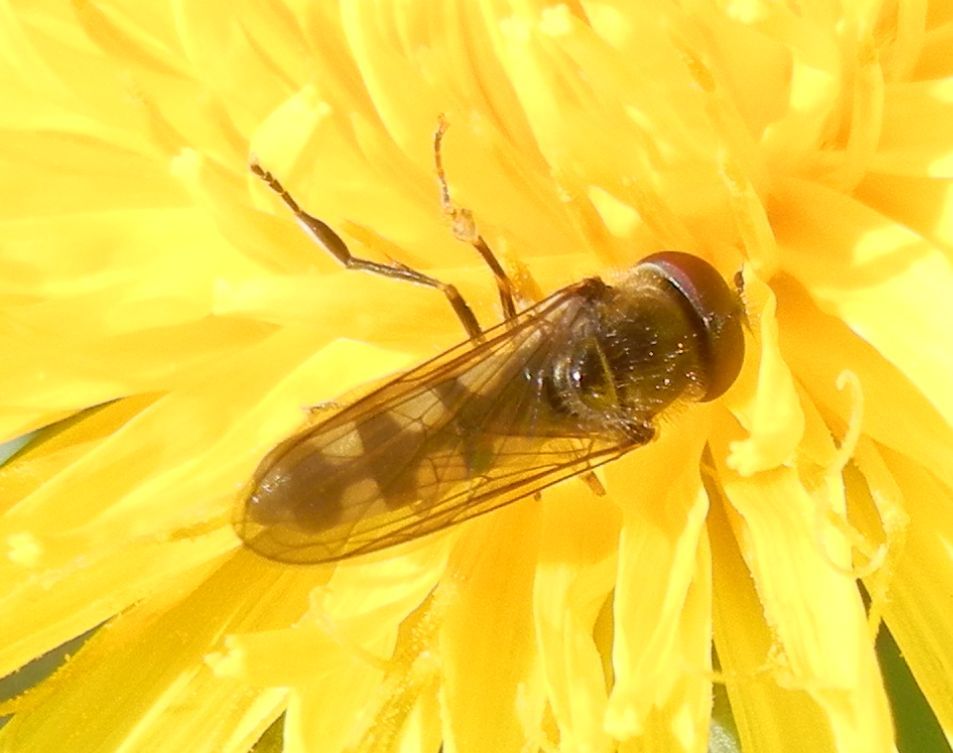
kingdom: Animalia
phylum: Arthropoda
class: Insecta
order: Diptera
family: Syrphidae
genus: Platycheirus
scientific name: Platycheirus ciliger
